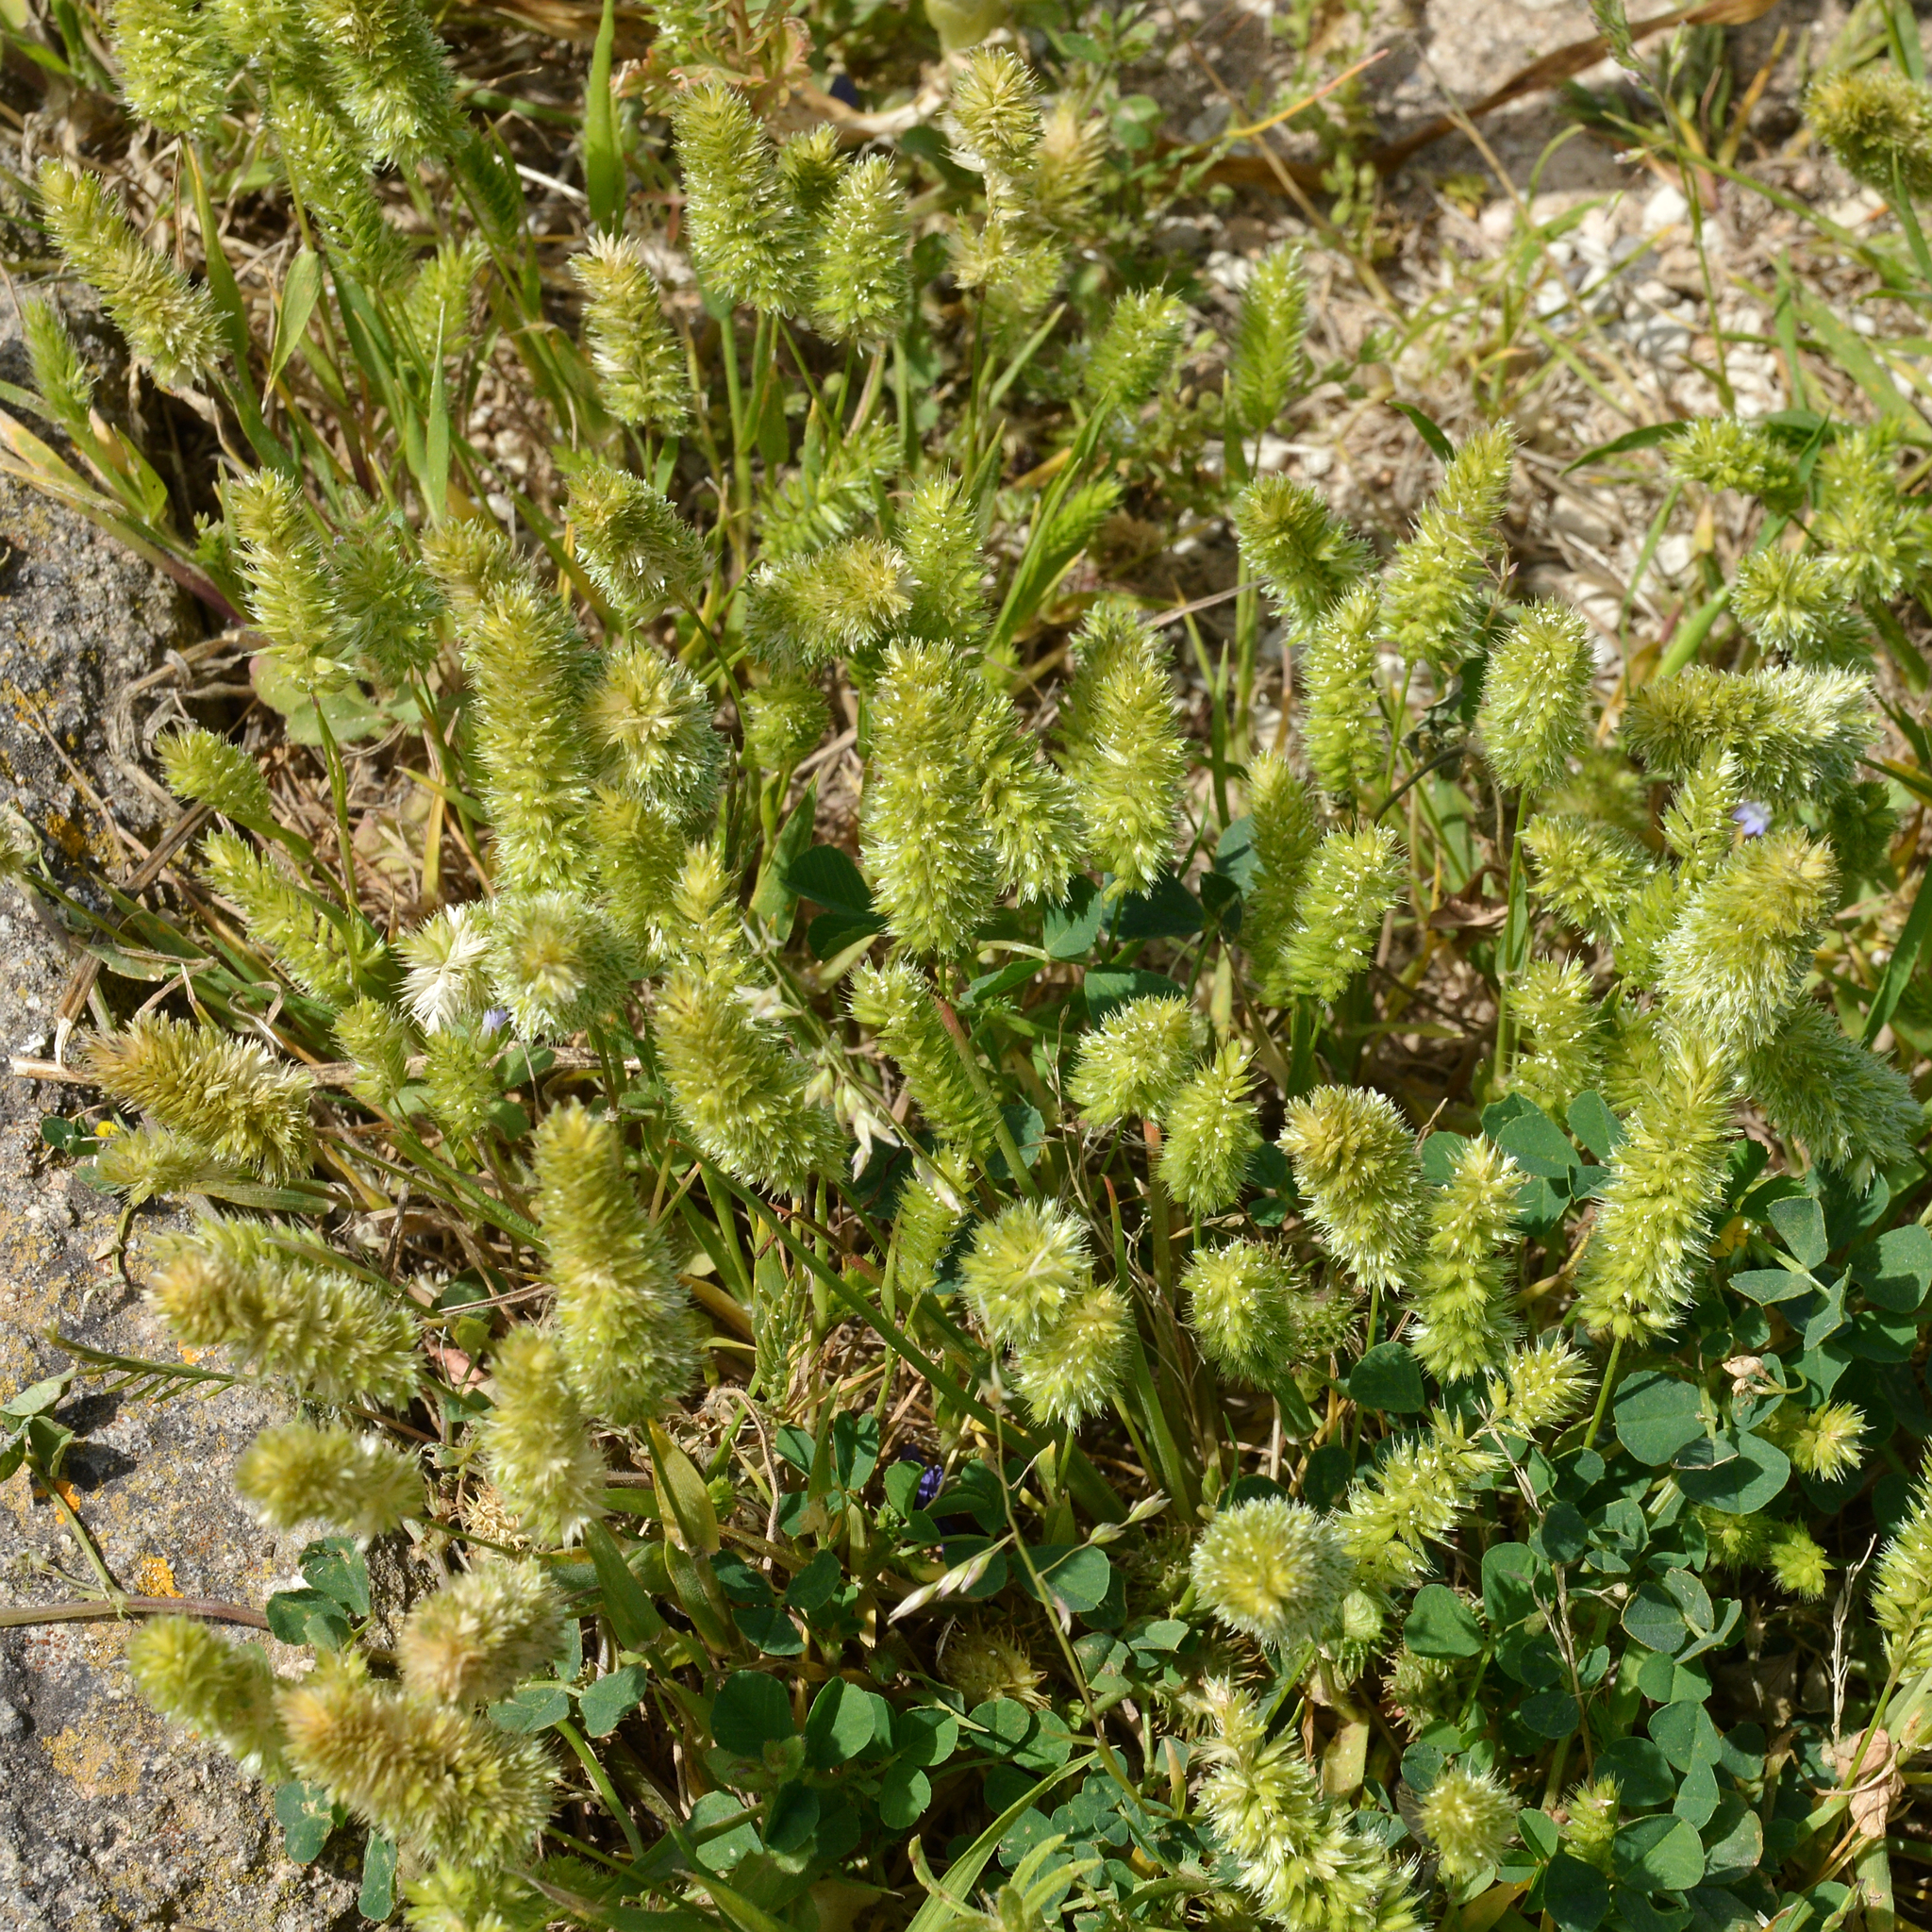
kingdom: Plantae
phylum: Tracheophyta
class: Liliopsida
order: Poales
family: Poaceae
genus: Rostraria
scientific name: Rostraria cristata
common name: Mediterranean hair-grass
